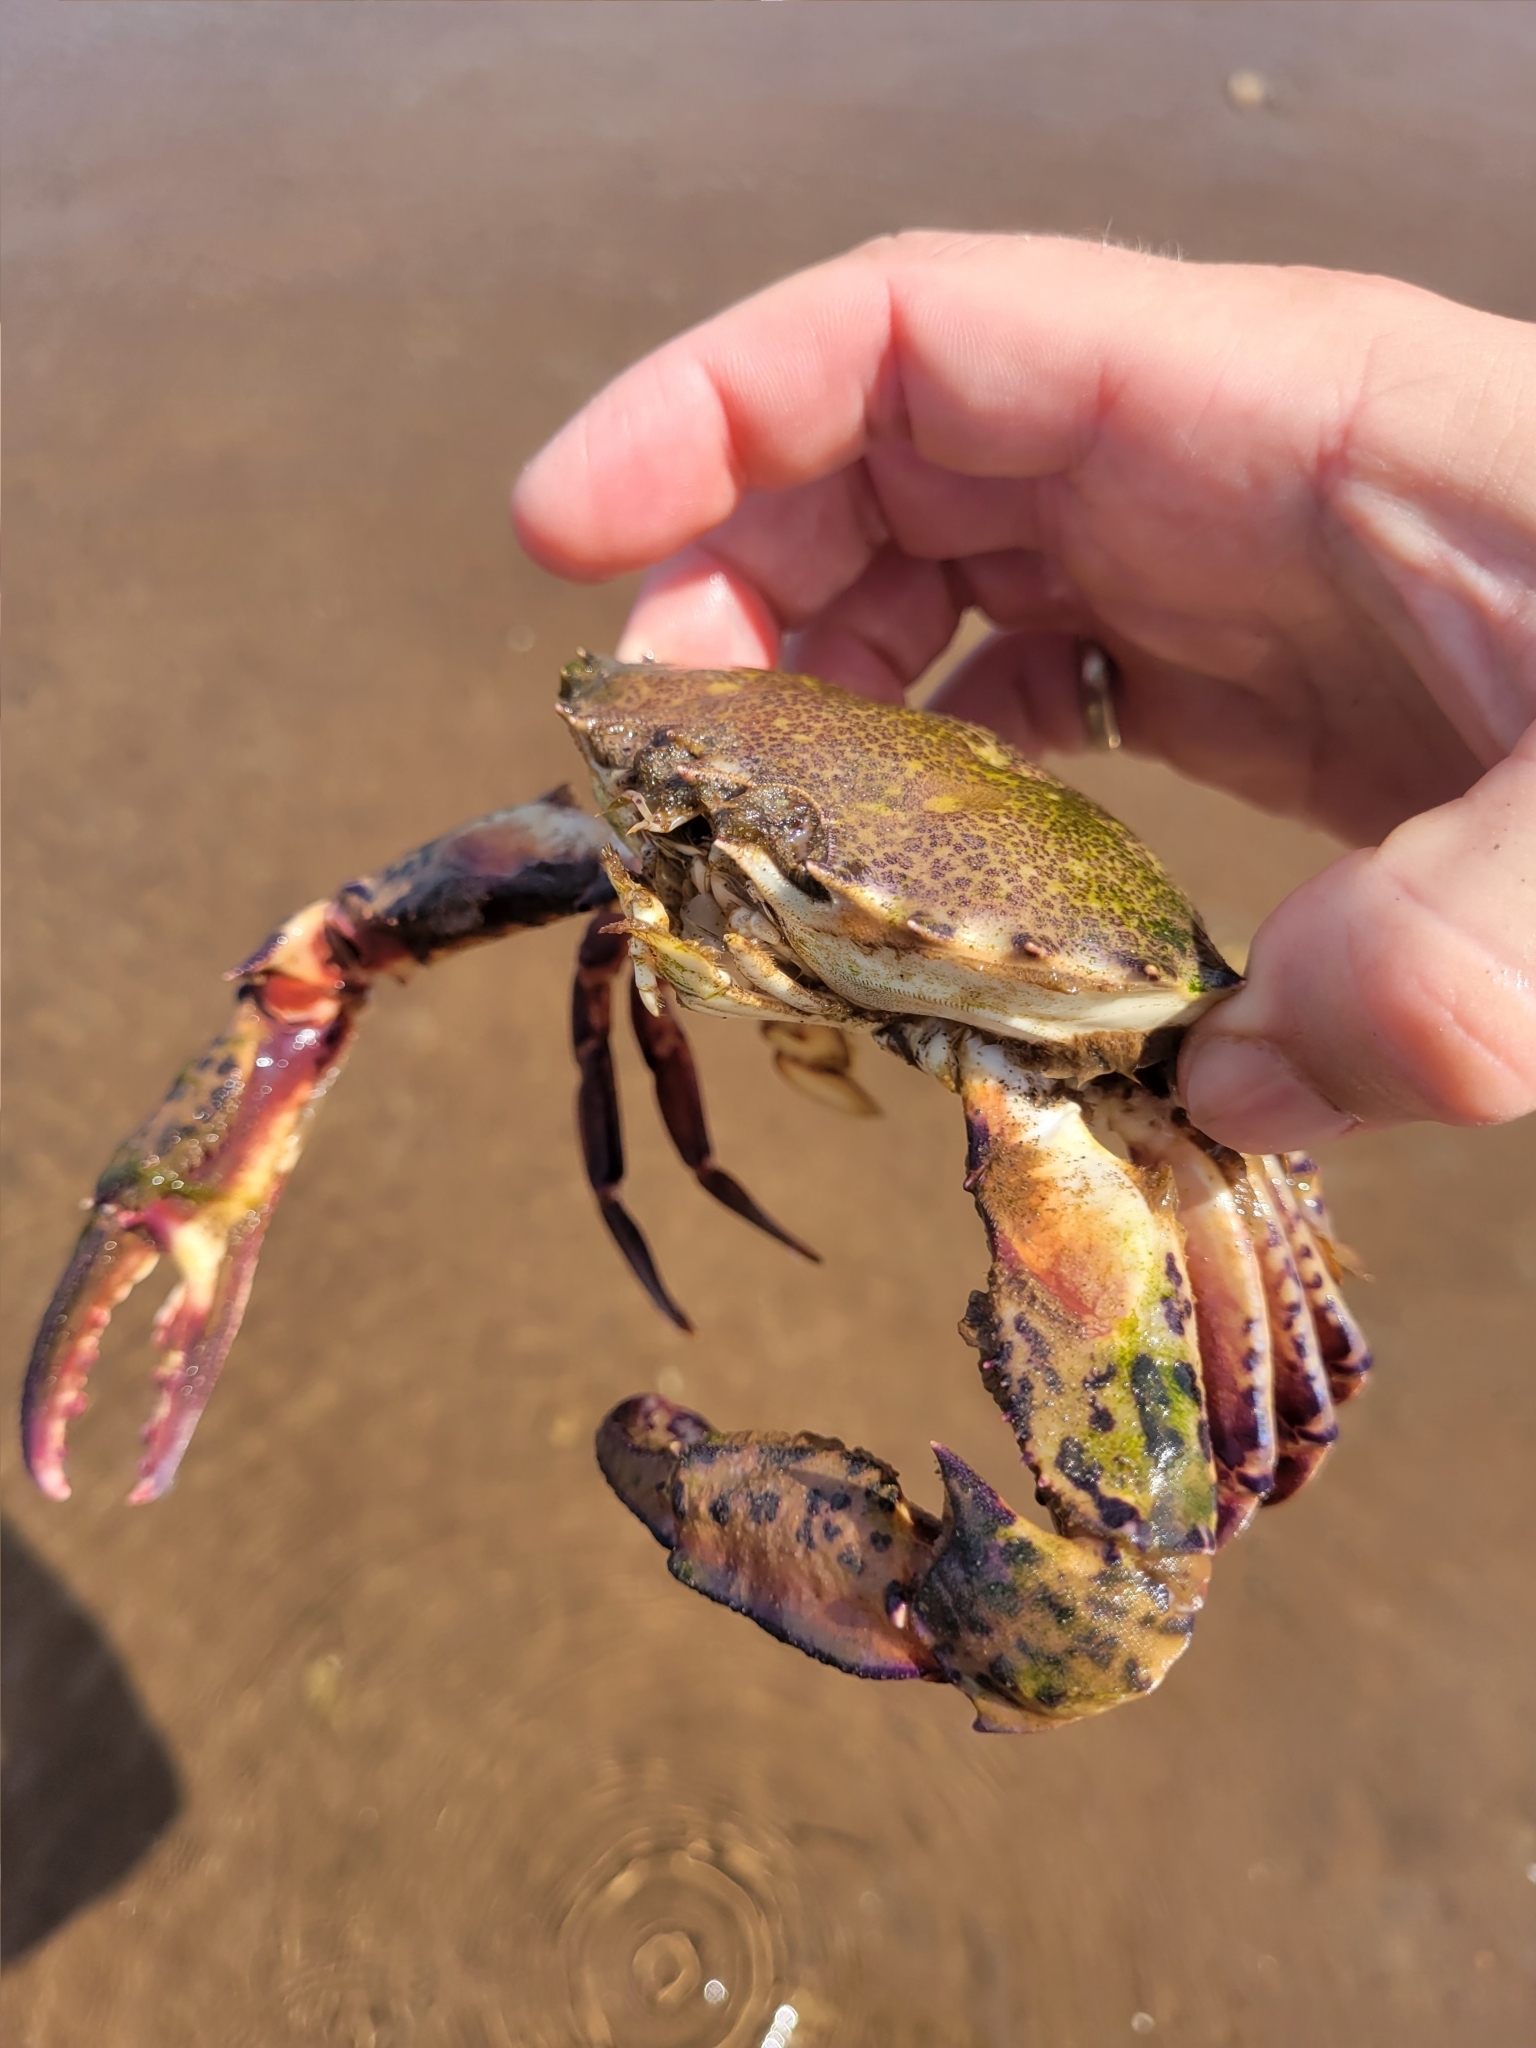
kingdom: Animalia
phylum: Arthropoda
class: Malacostraca
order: Decapoda
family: Ovalipidae
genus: Ovalipes
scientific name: Ovalipes ocellatus
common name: Lady crab
